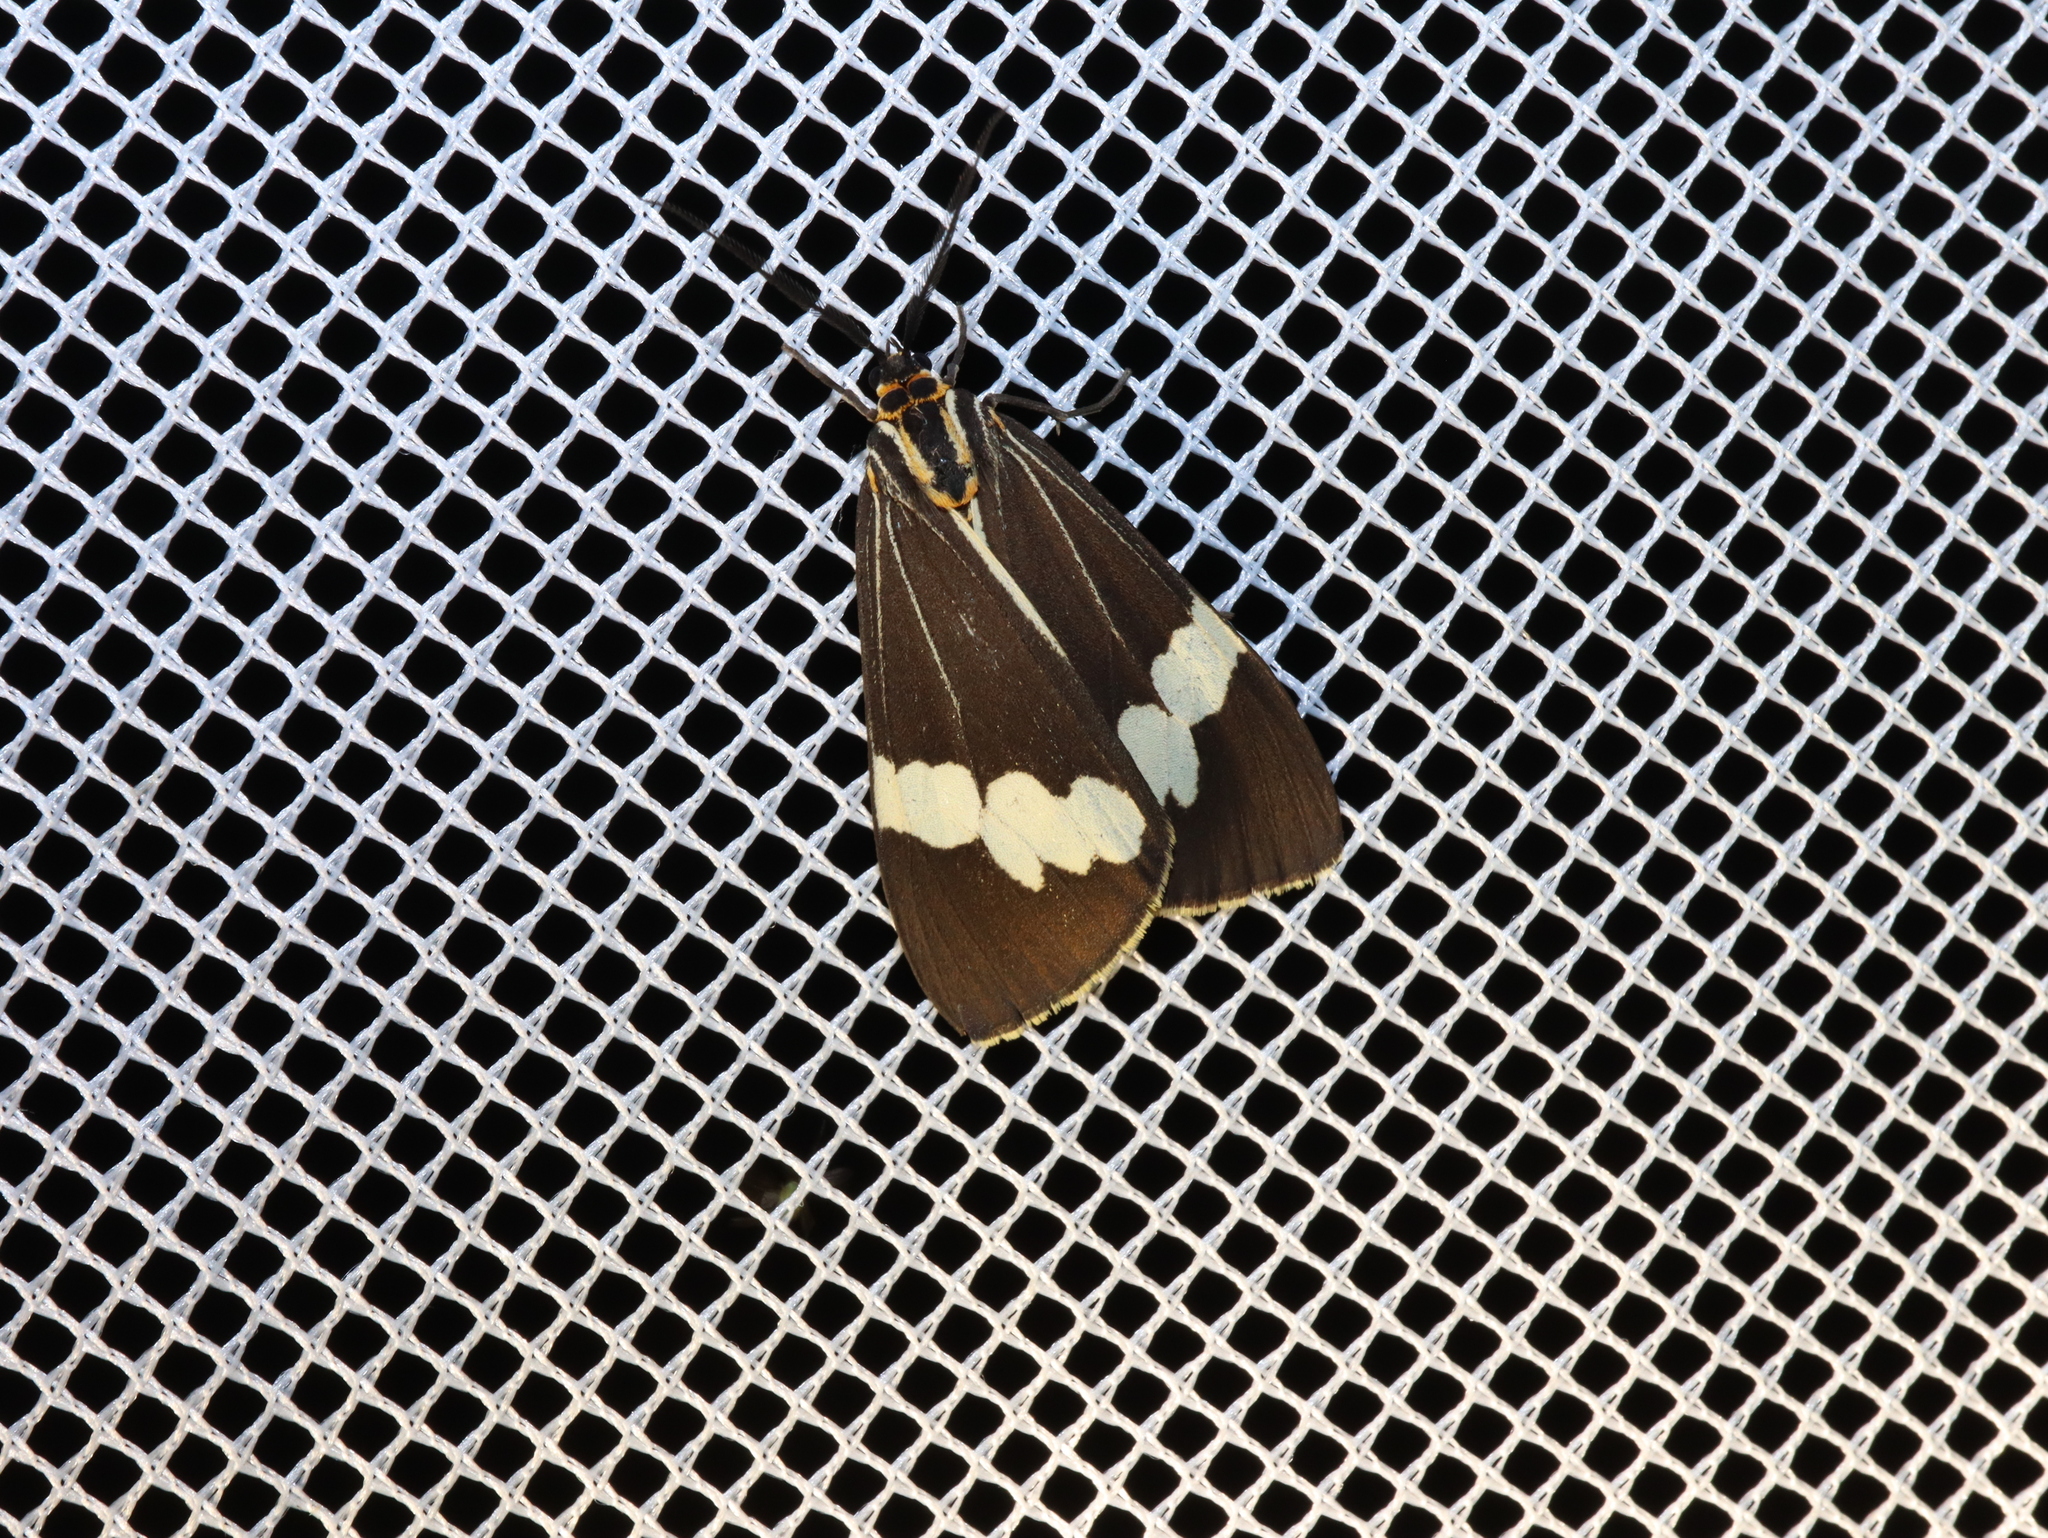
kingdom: Animalia
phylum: Arthropoda
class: Insecta
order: Lepidoptera
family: Erebidae
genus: Nyctemera
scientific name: Nyctemera amicus
